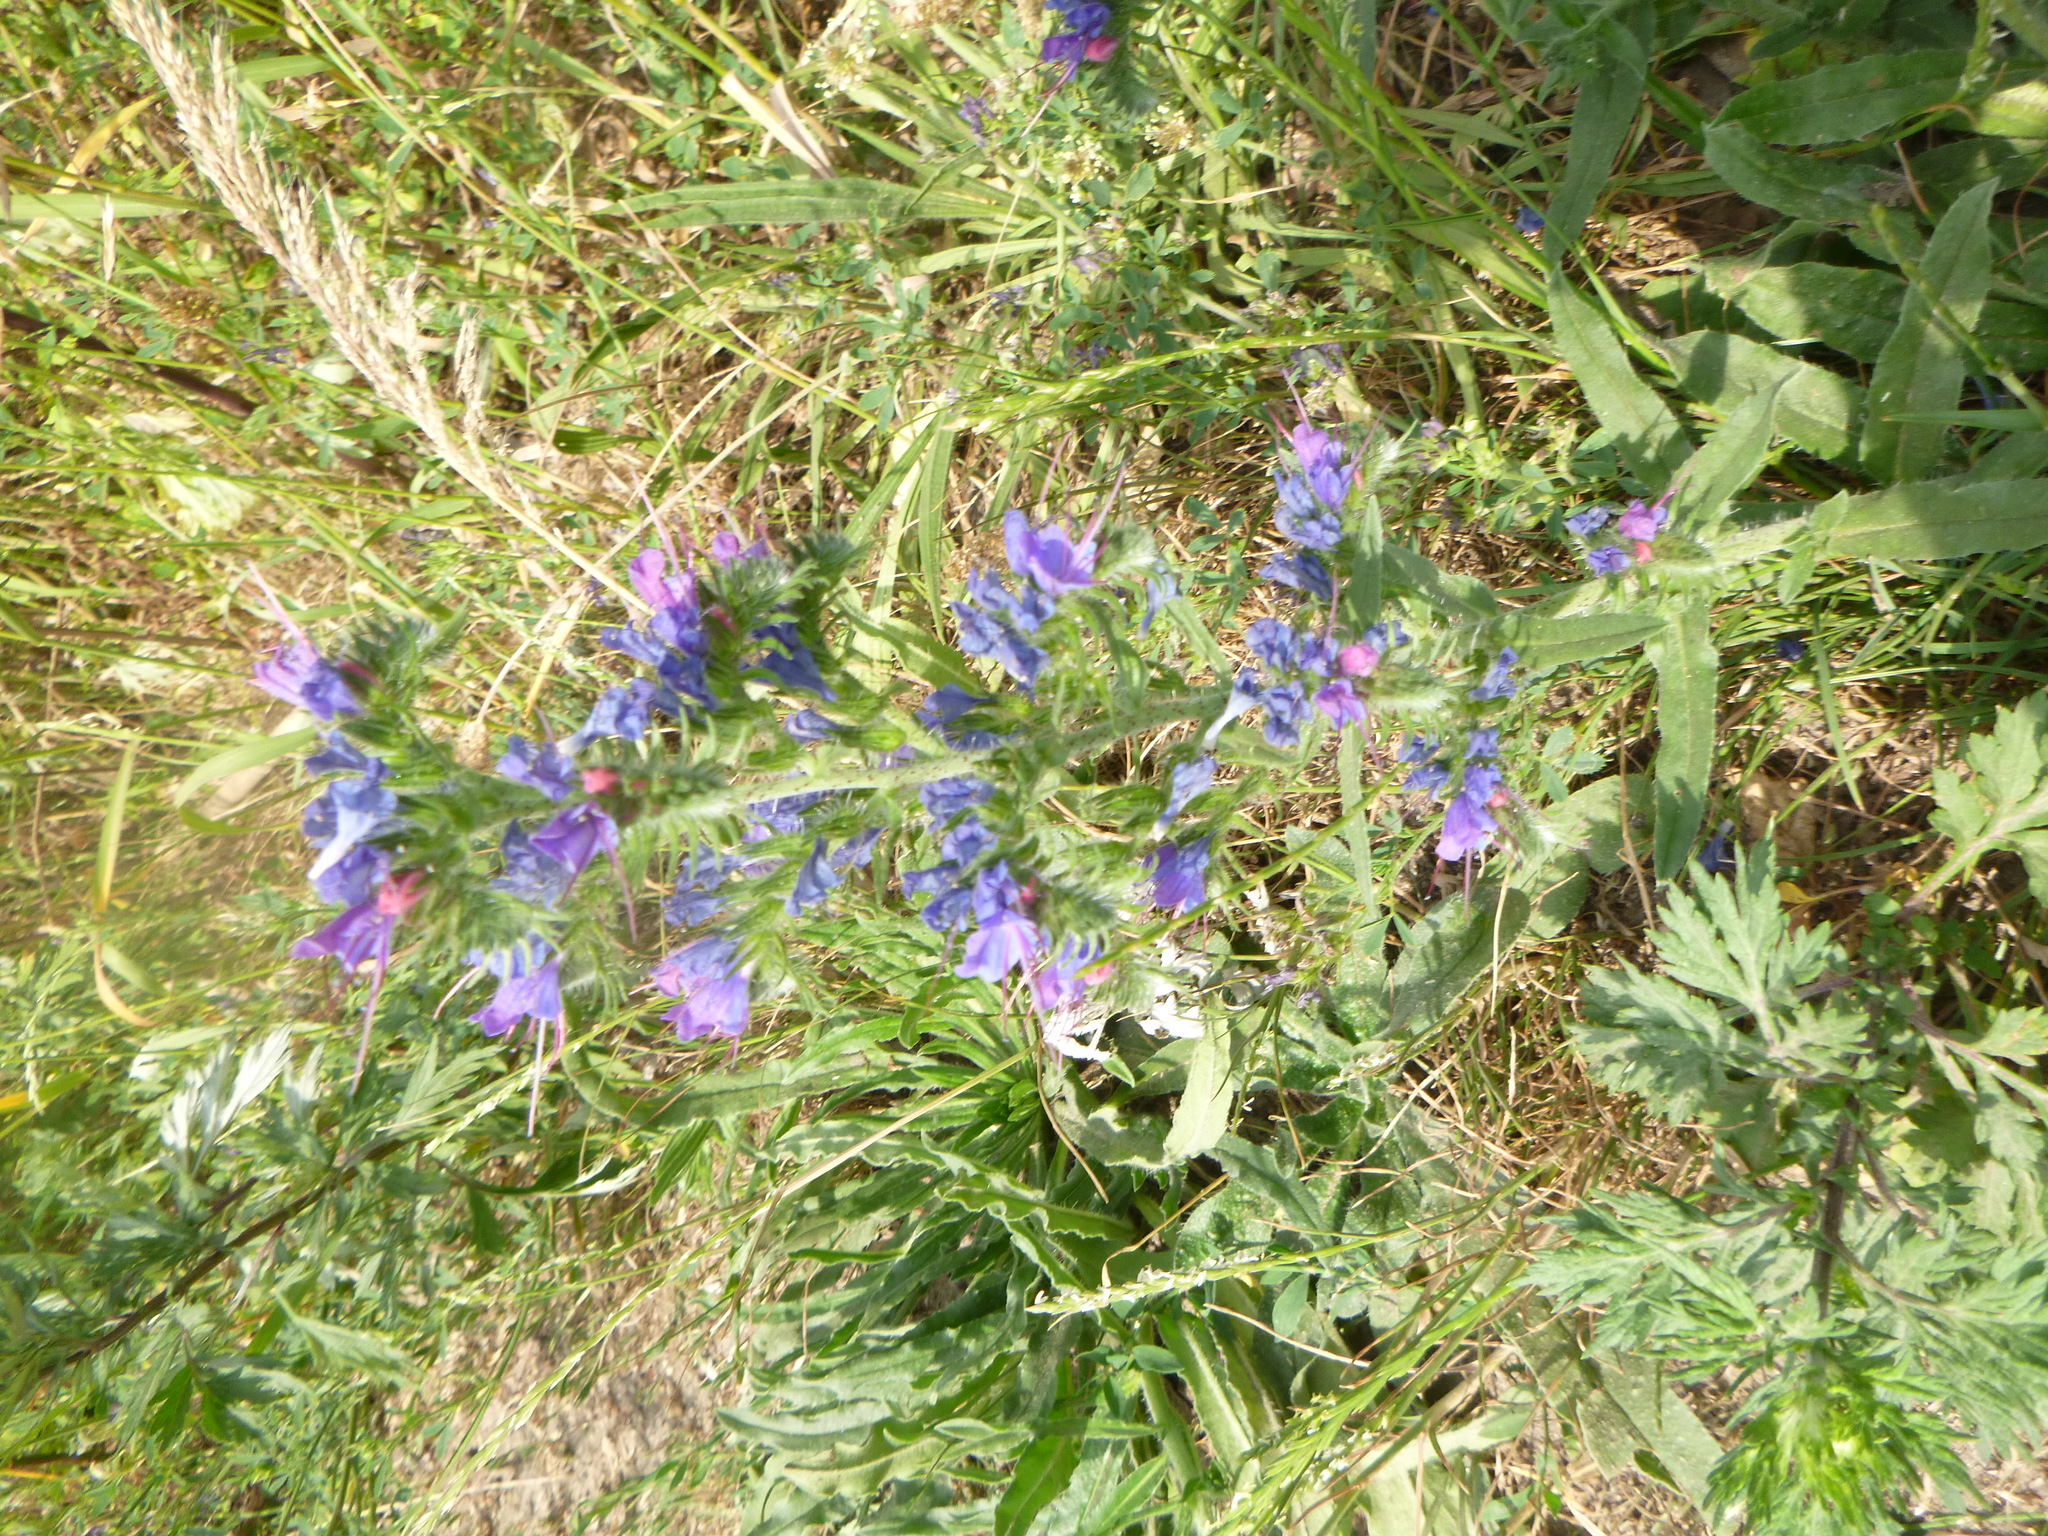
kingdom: Plantae
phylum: Tracheophyta
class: Magnoliopsida
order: Boraginales
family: Boraginaceae
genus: Echium
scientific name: Echium vulgare
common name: Common viper's bugloss
